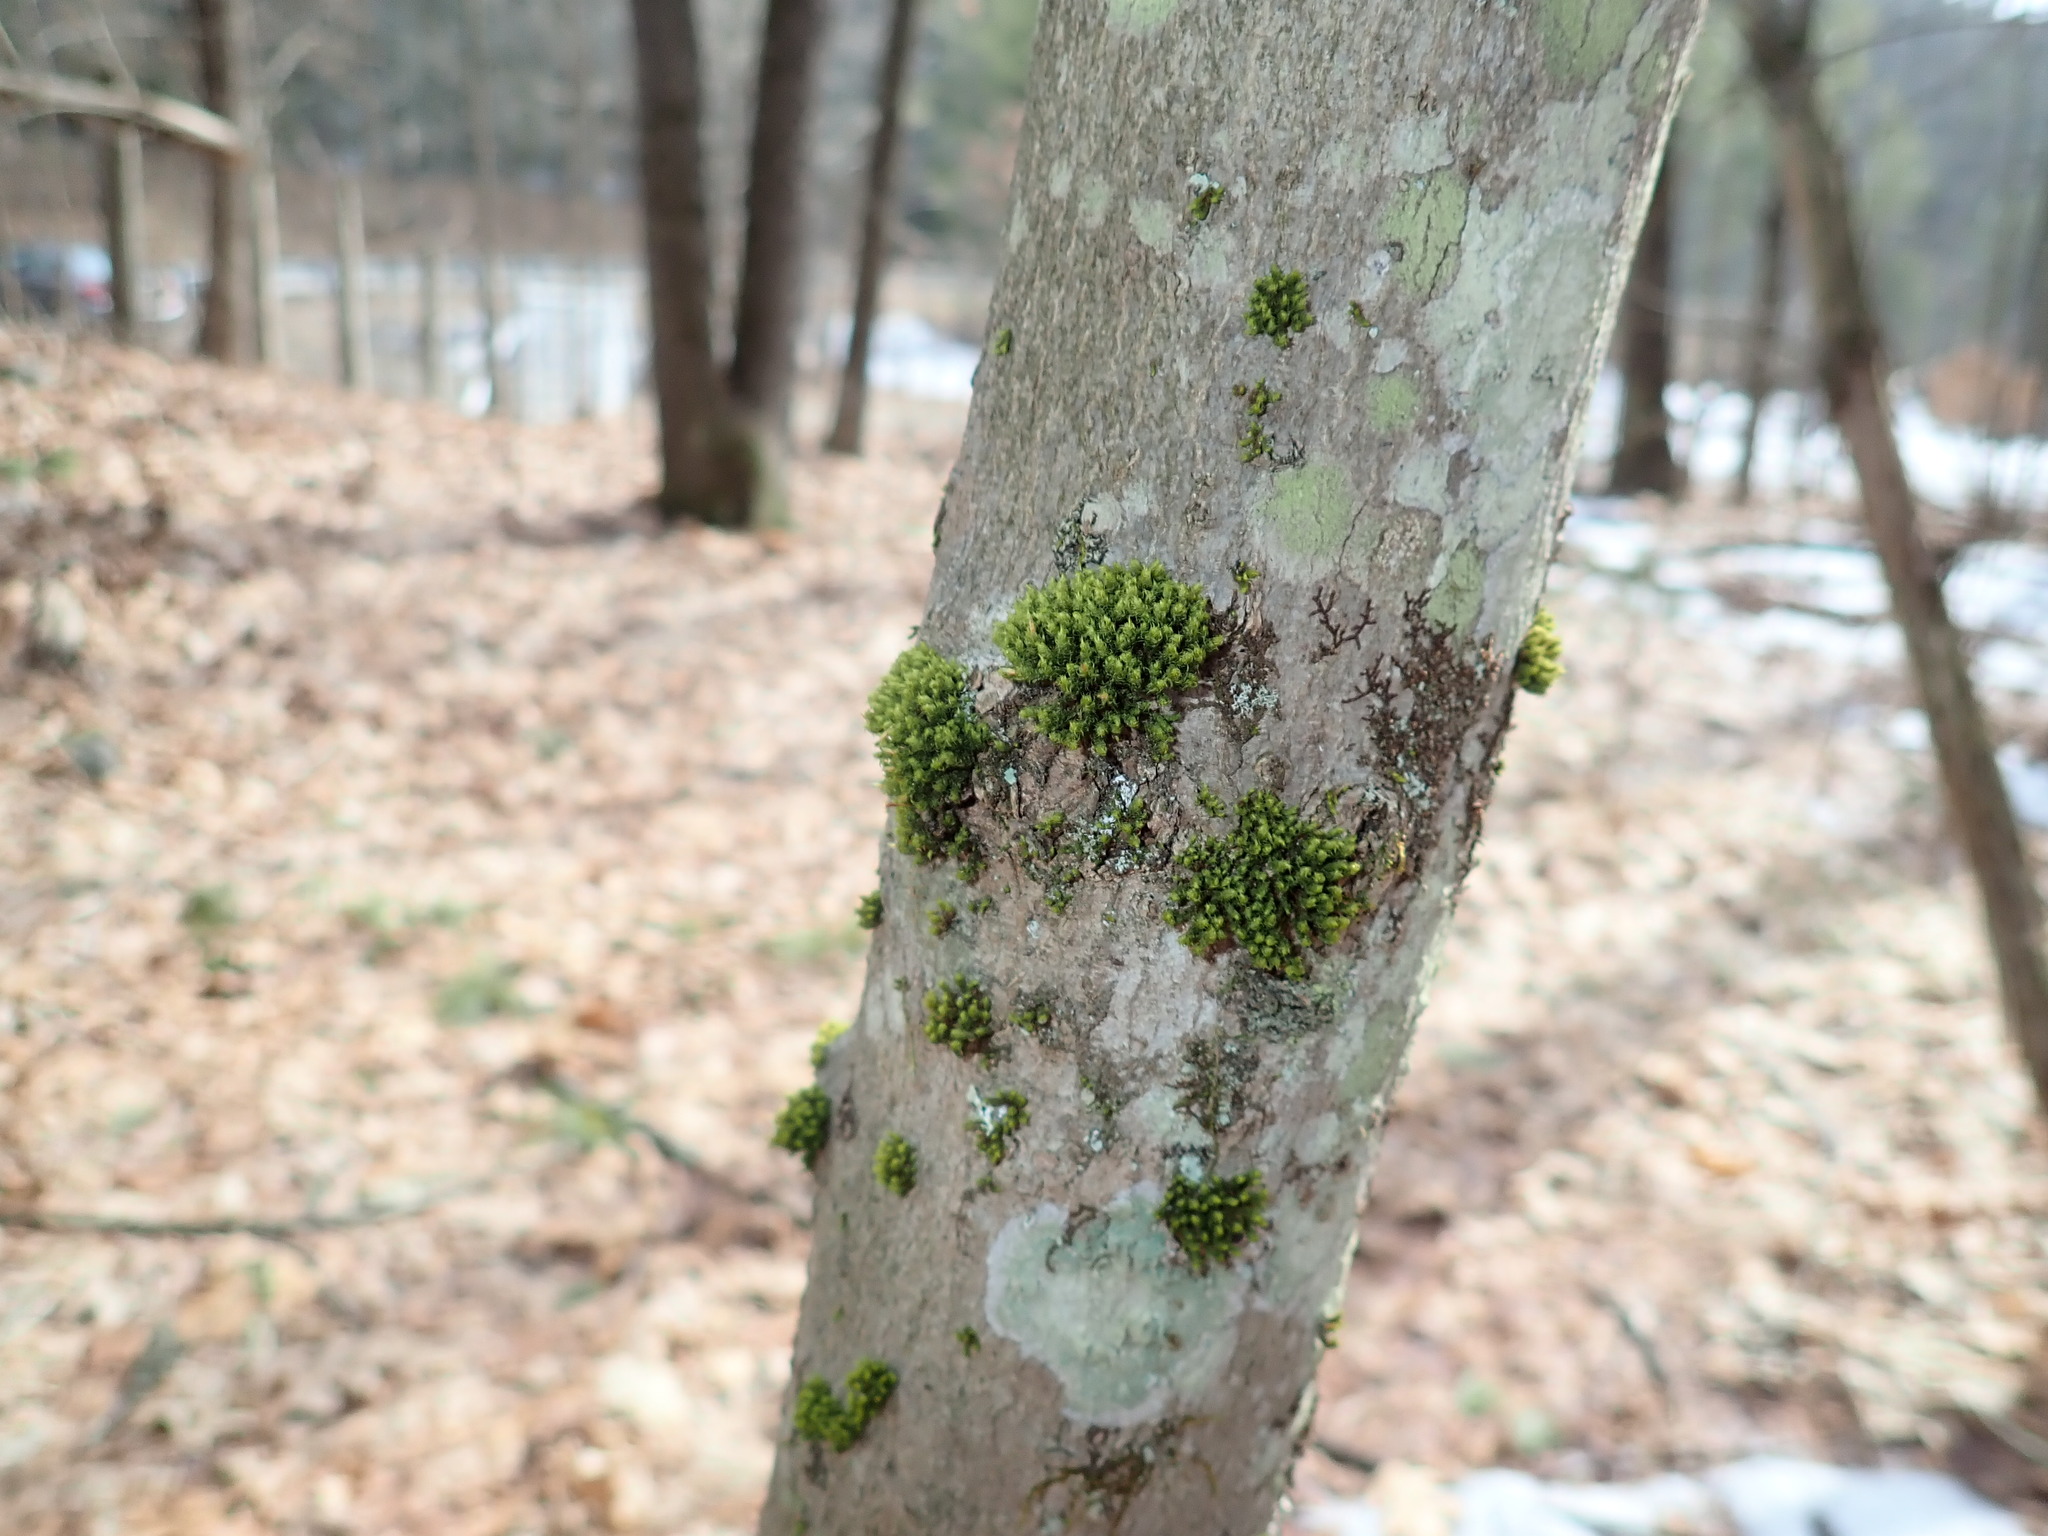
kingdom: Plantae
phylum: Bryophyta
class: Bryopsida
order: Orthotrichales
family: Orthotrichaceae
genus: Ulota
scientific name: Ulota
